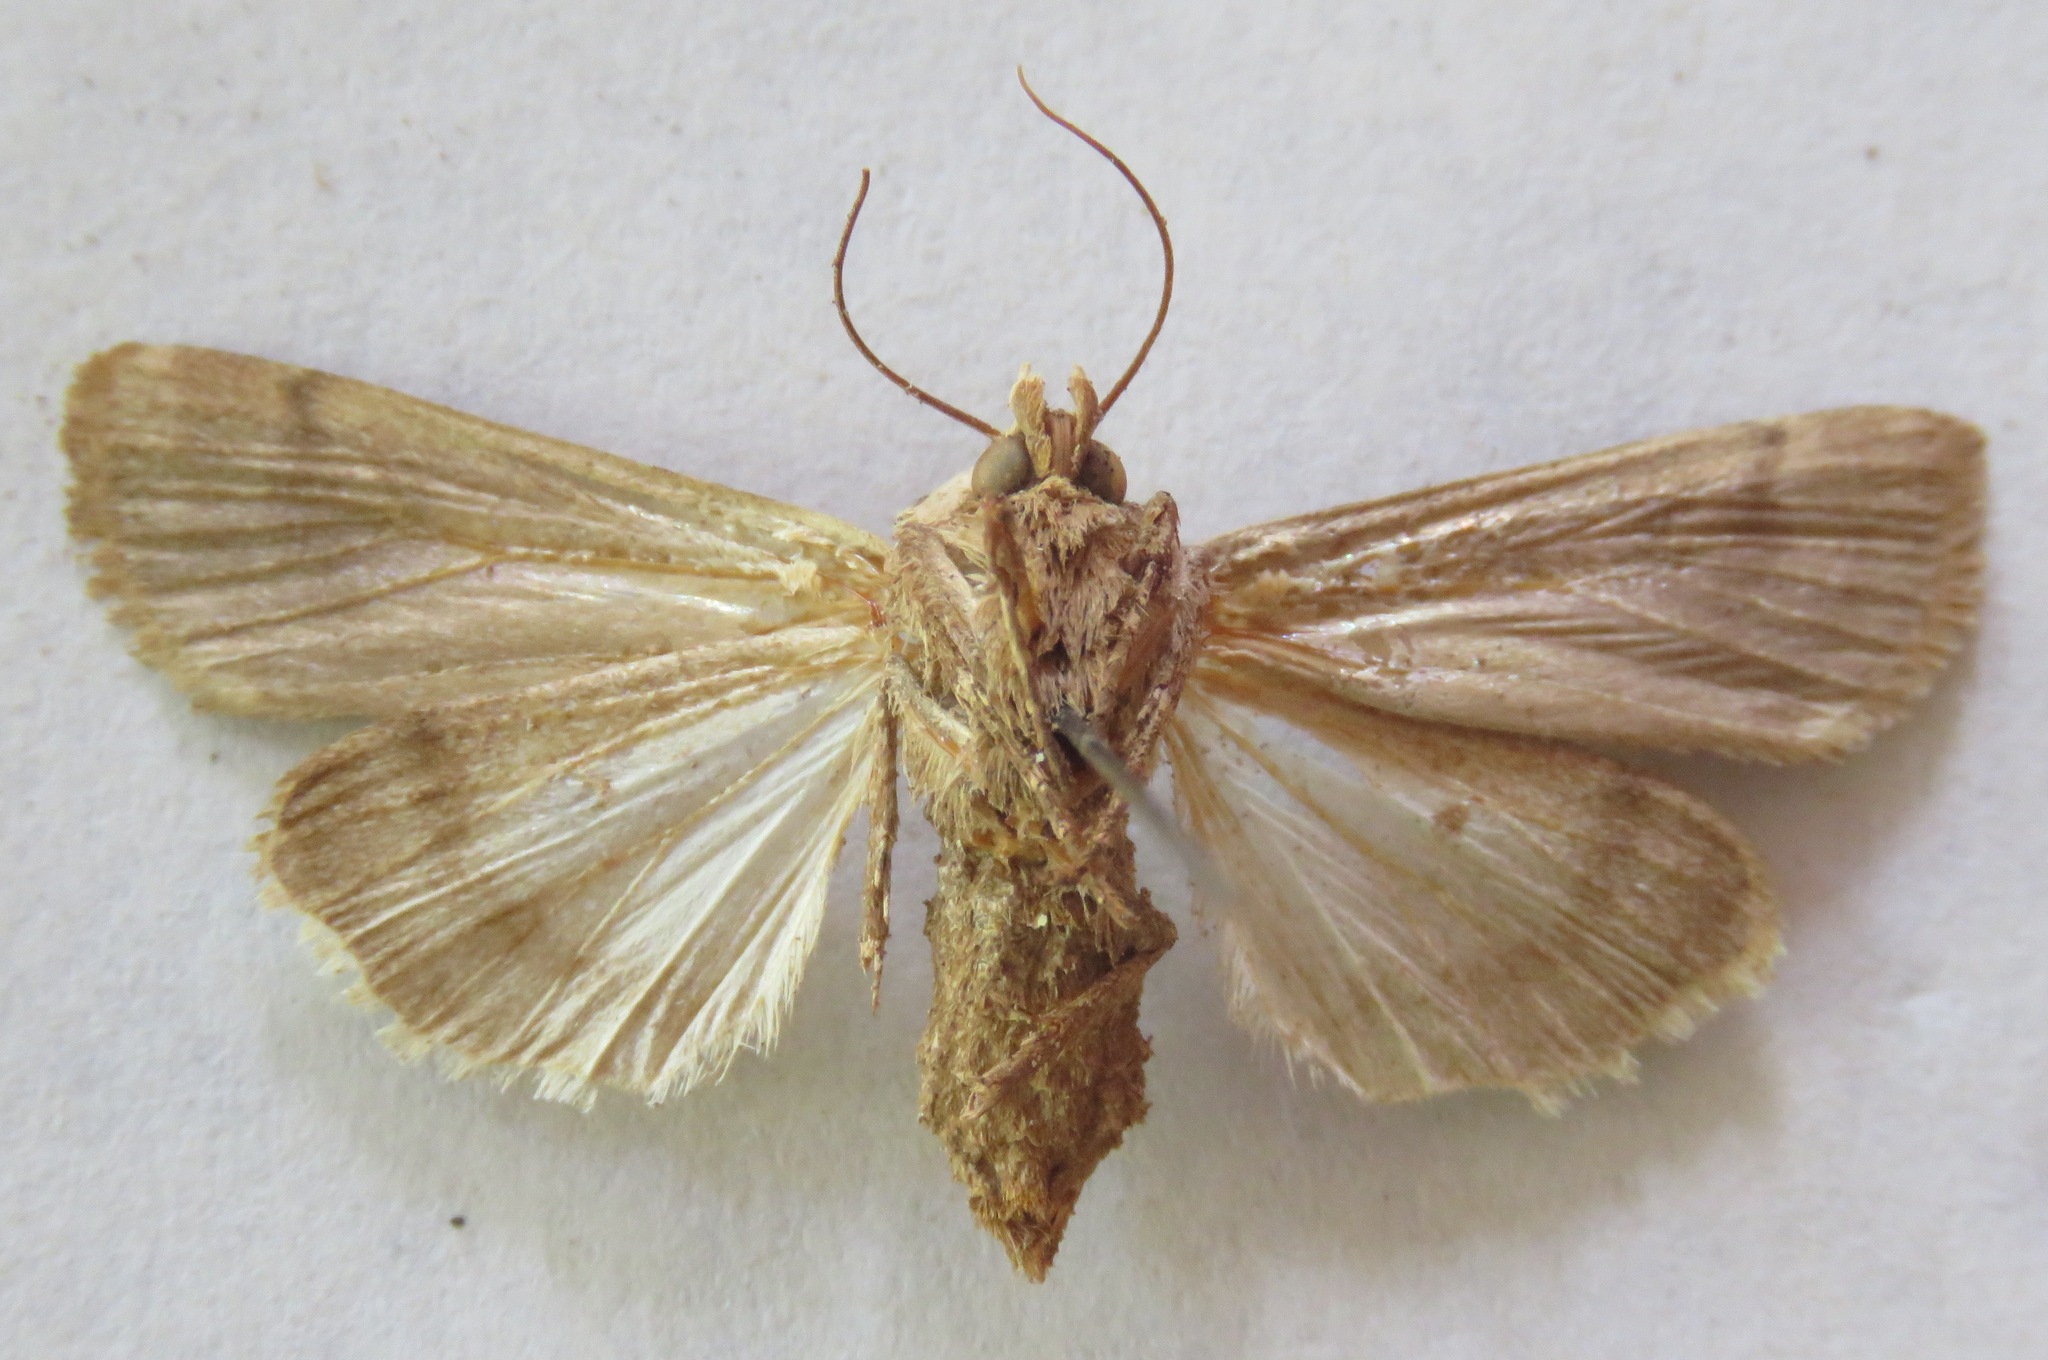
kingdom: Animalia
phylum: Arthropoda
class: Insecta
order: Lepidoptera
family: Noctuidae
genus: Agrotis
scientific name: Agrotis exclamationis
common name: Heart and dart
